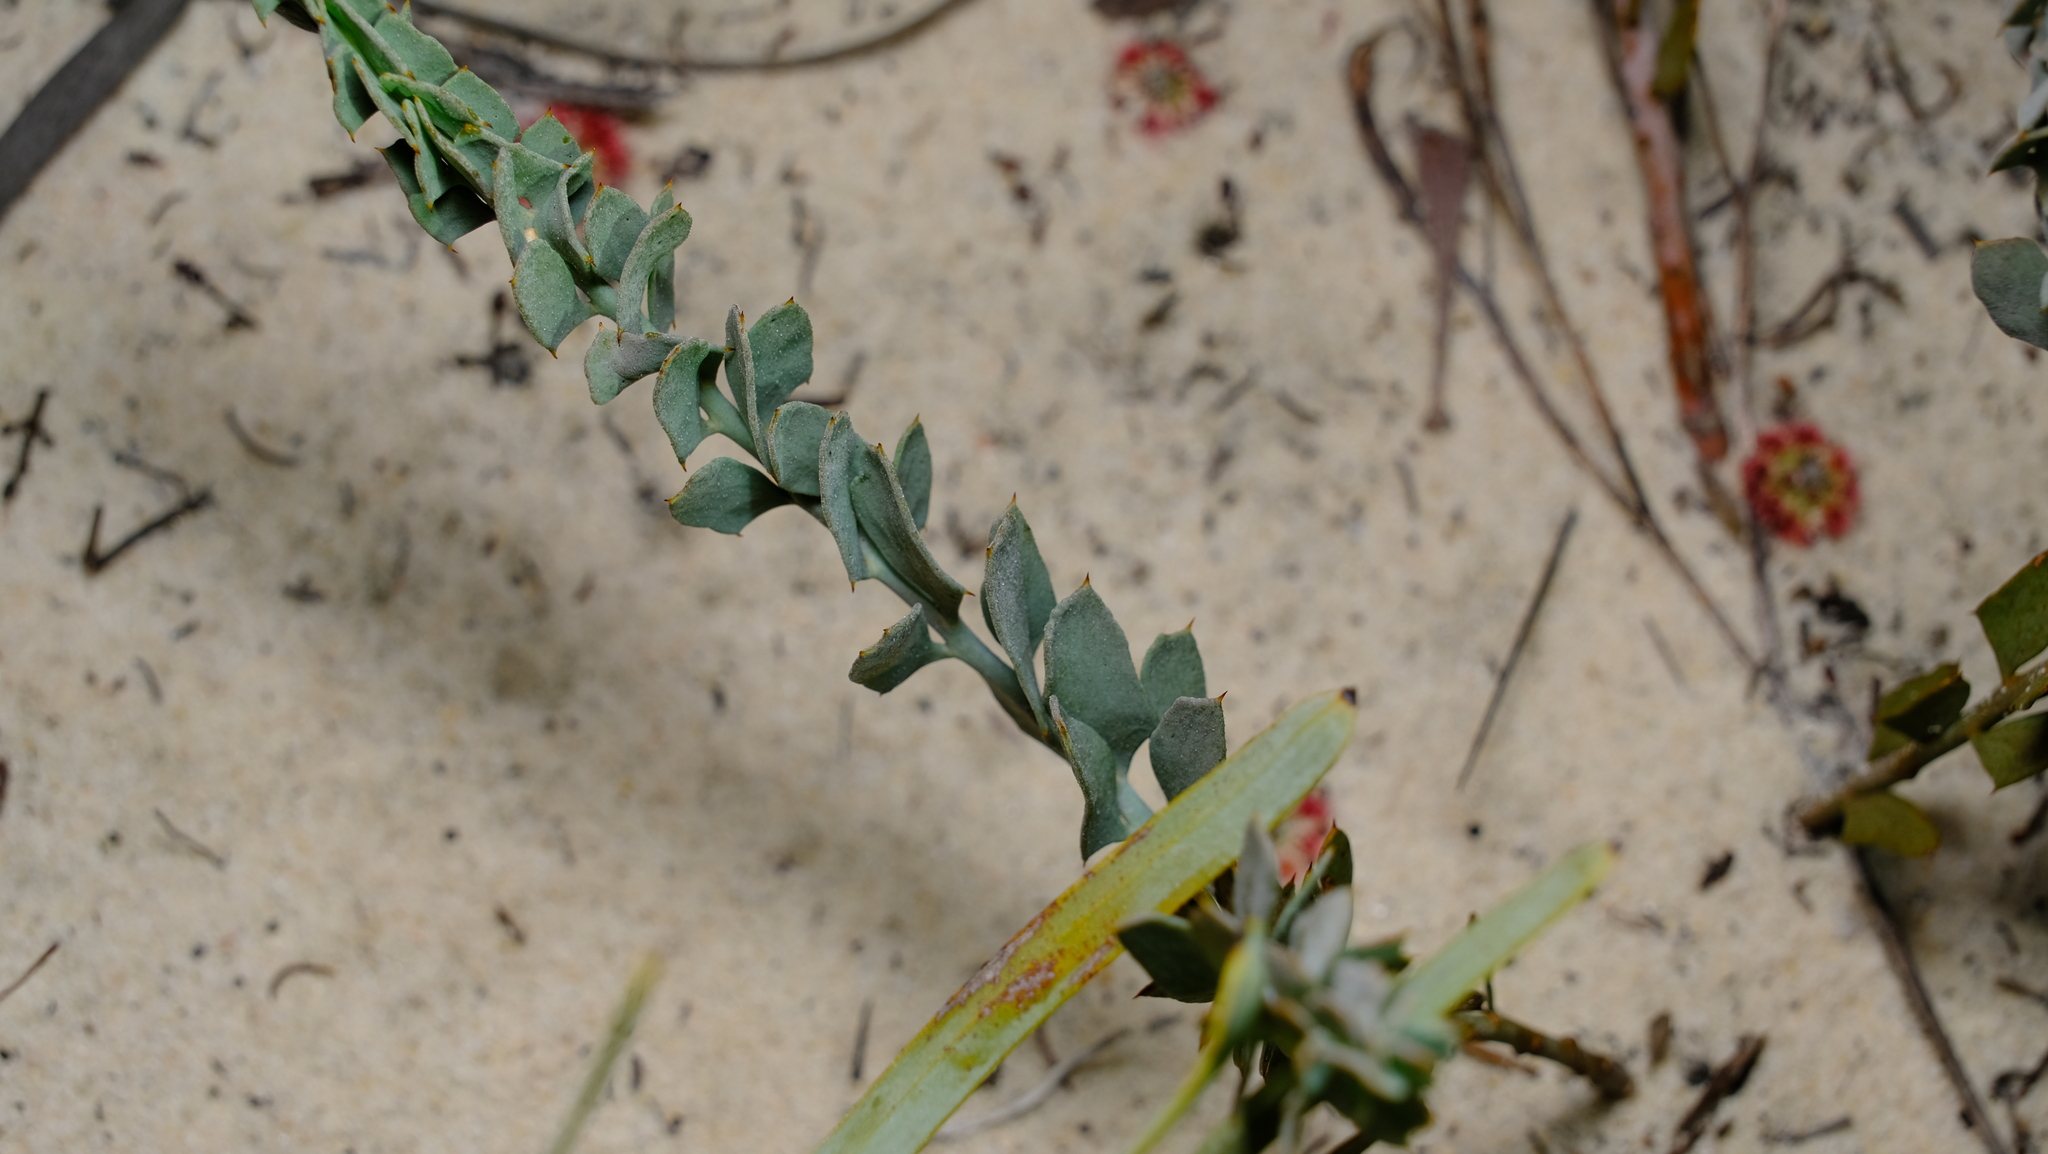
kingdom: Plantae
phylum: Tracheophyta
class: Magnoliopsida
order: Fabales
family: Fabaceae
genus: Daviesia
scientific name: Daviesia podophylla
